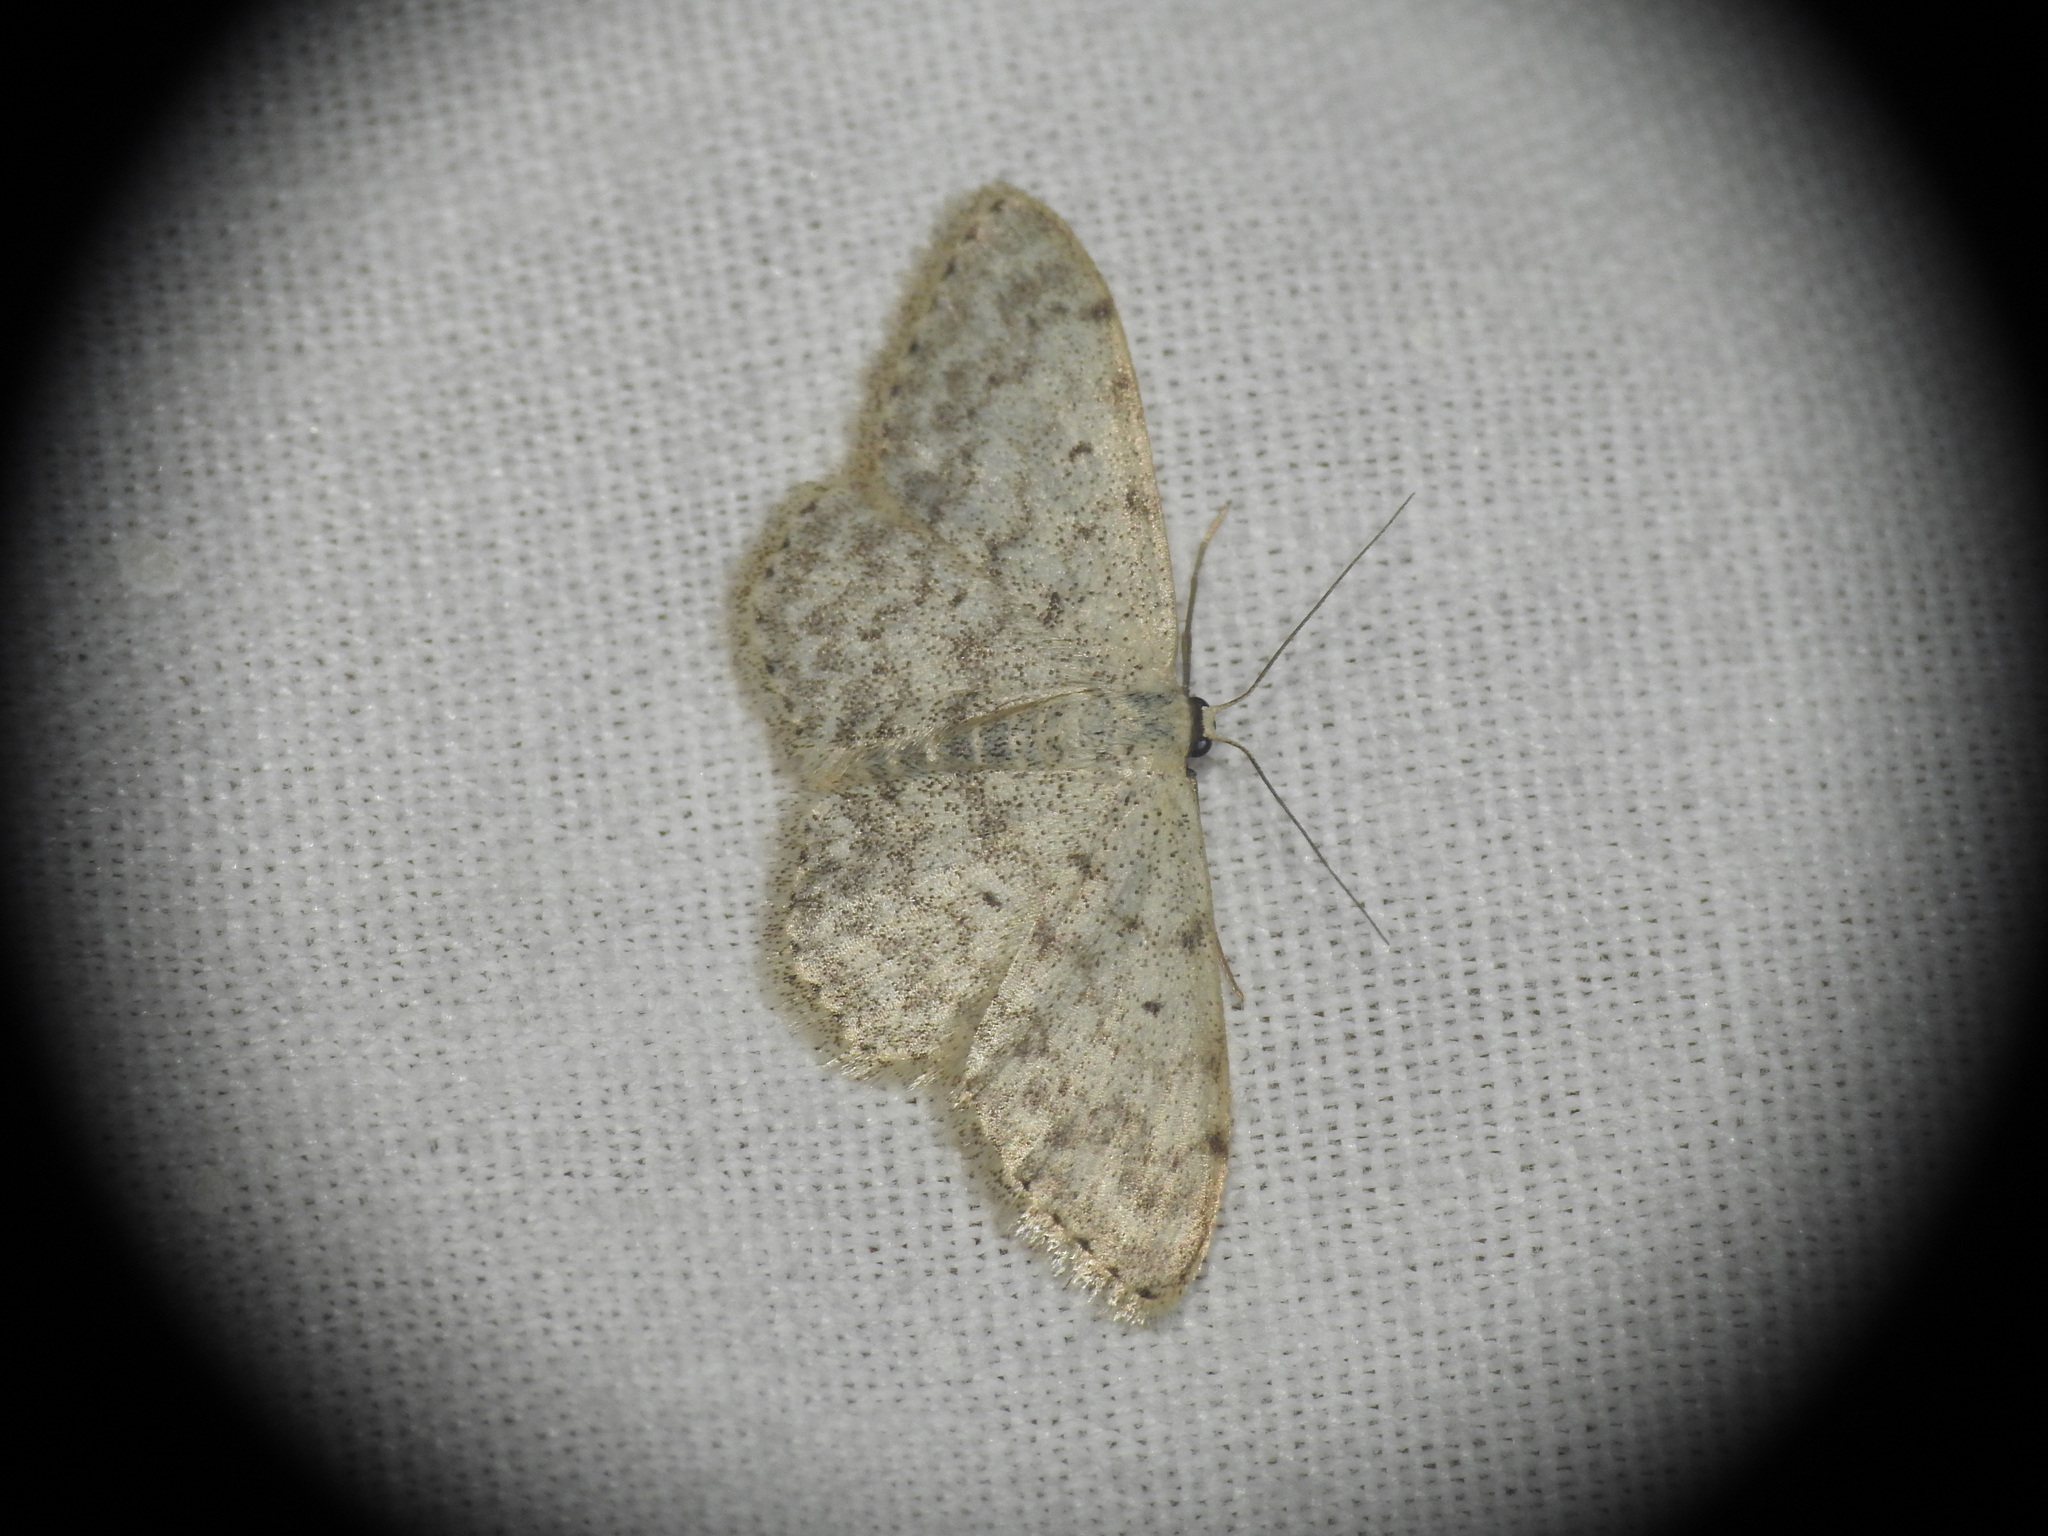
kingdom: Animalia
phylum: Arthropoda
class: Insecta
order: Lepidoptera
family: Geometridae
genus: Scopula
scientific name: Scopula marginepunctata
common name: Mullein wave
